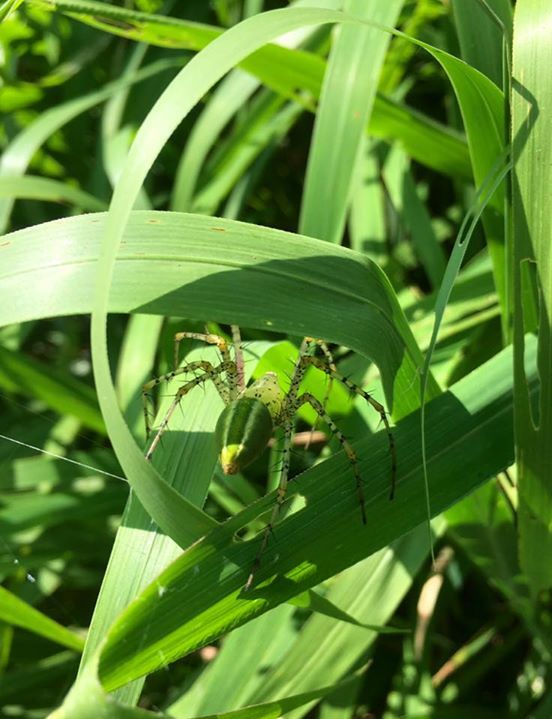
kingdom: Animalia
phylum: Arthropoda
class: Arachnida
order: Araneae
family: Oxyopidae
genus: Peucetia
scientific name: Peucetia formosensis
